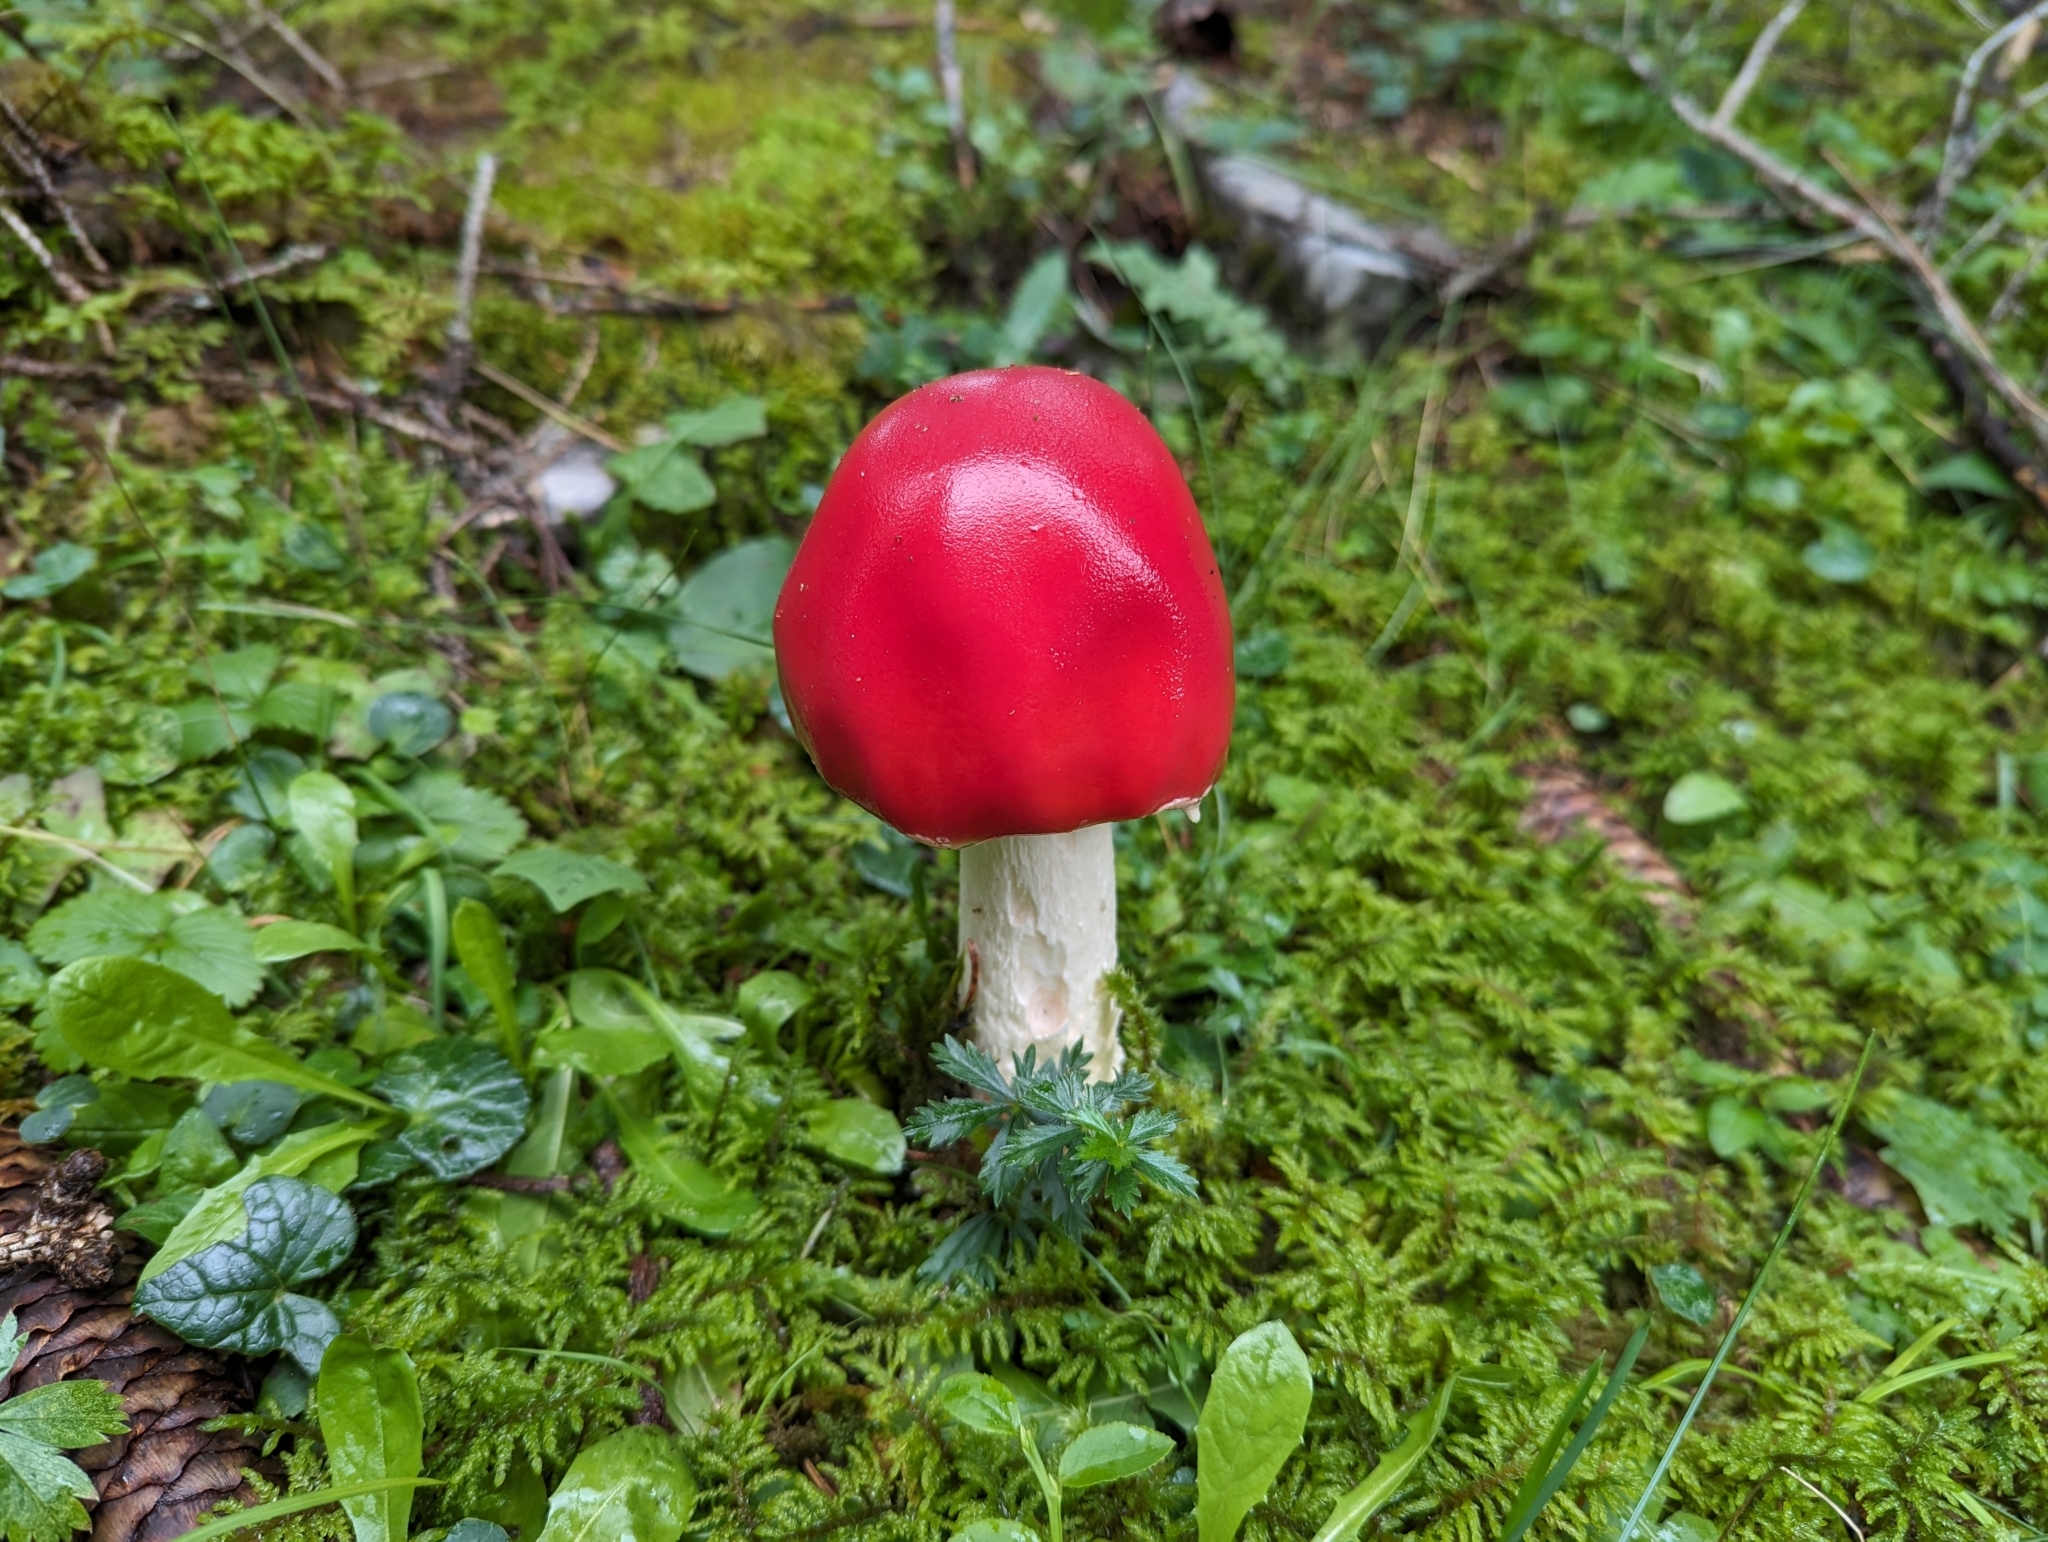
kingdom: Fungi
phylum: Basidiomycota
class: Agaricomycetes
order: Agaricales
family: Amanitaceae
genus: Amanita
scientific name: Amanita muscaria
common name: Fly agaric
